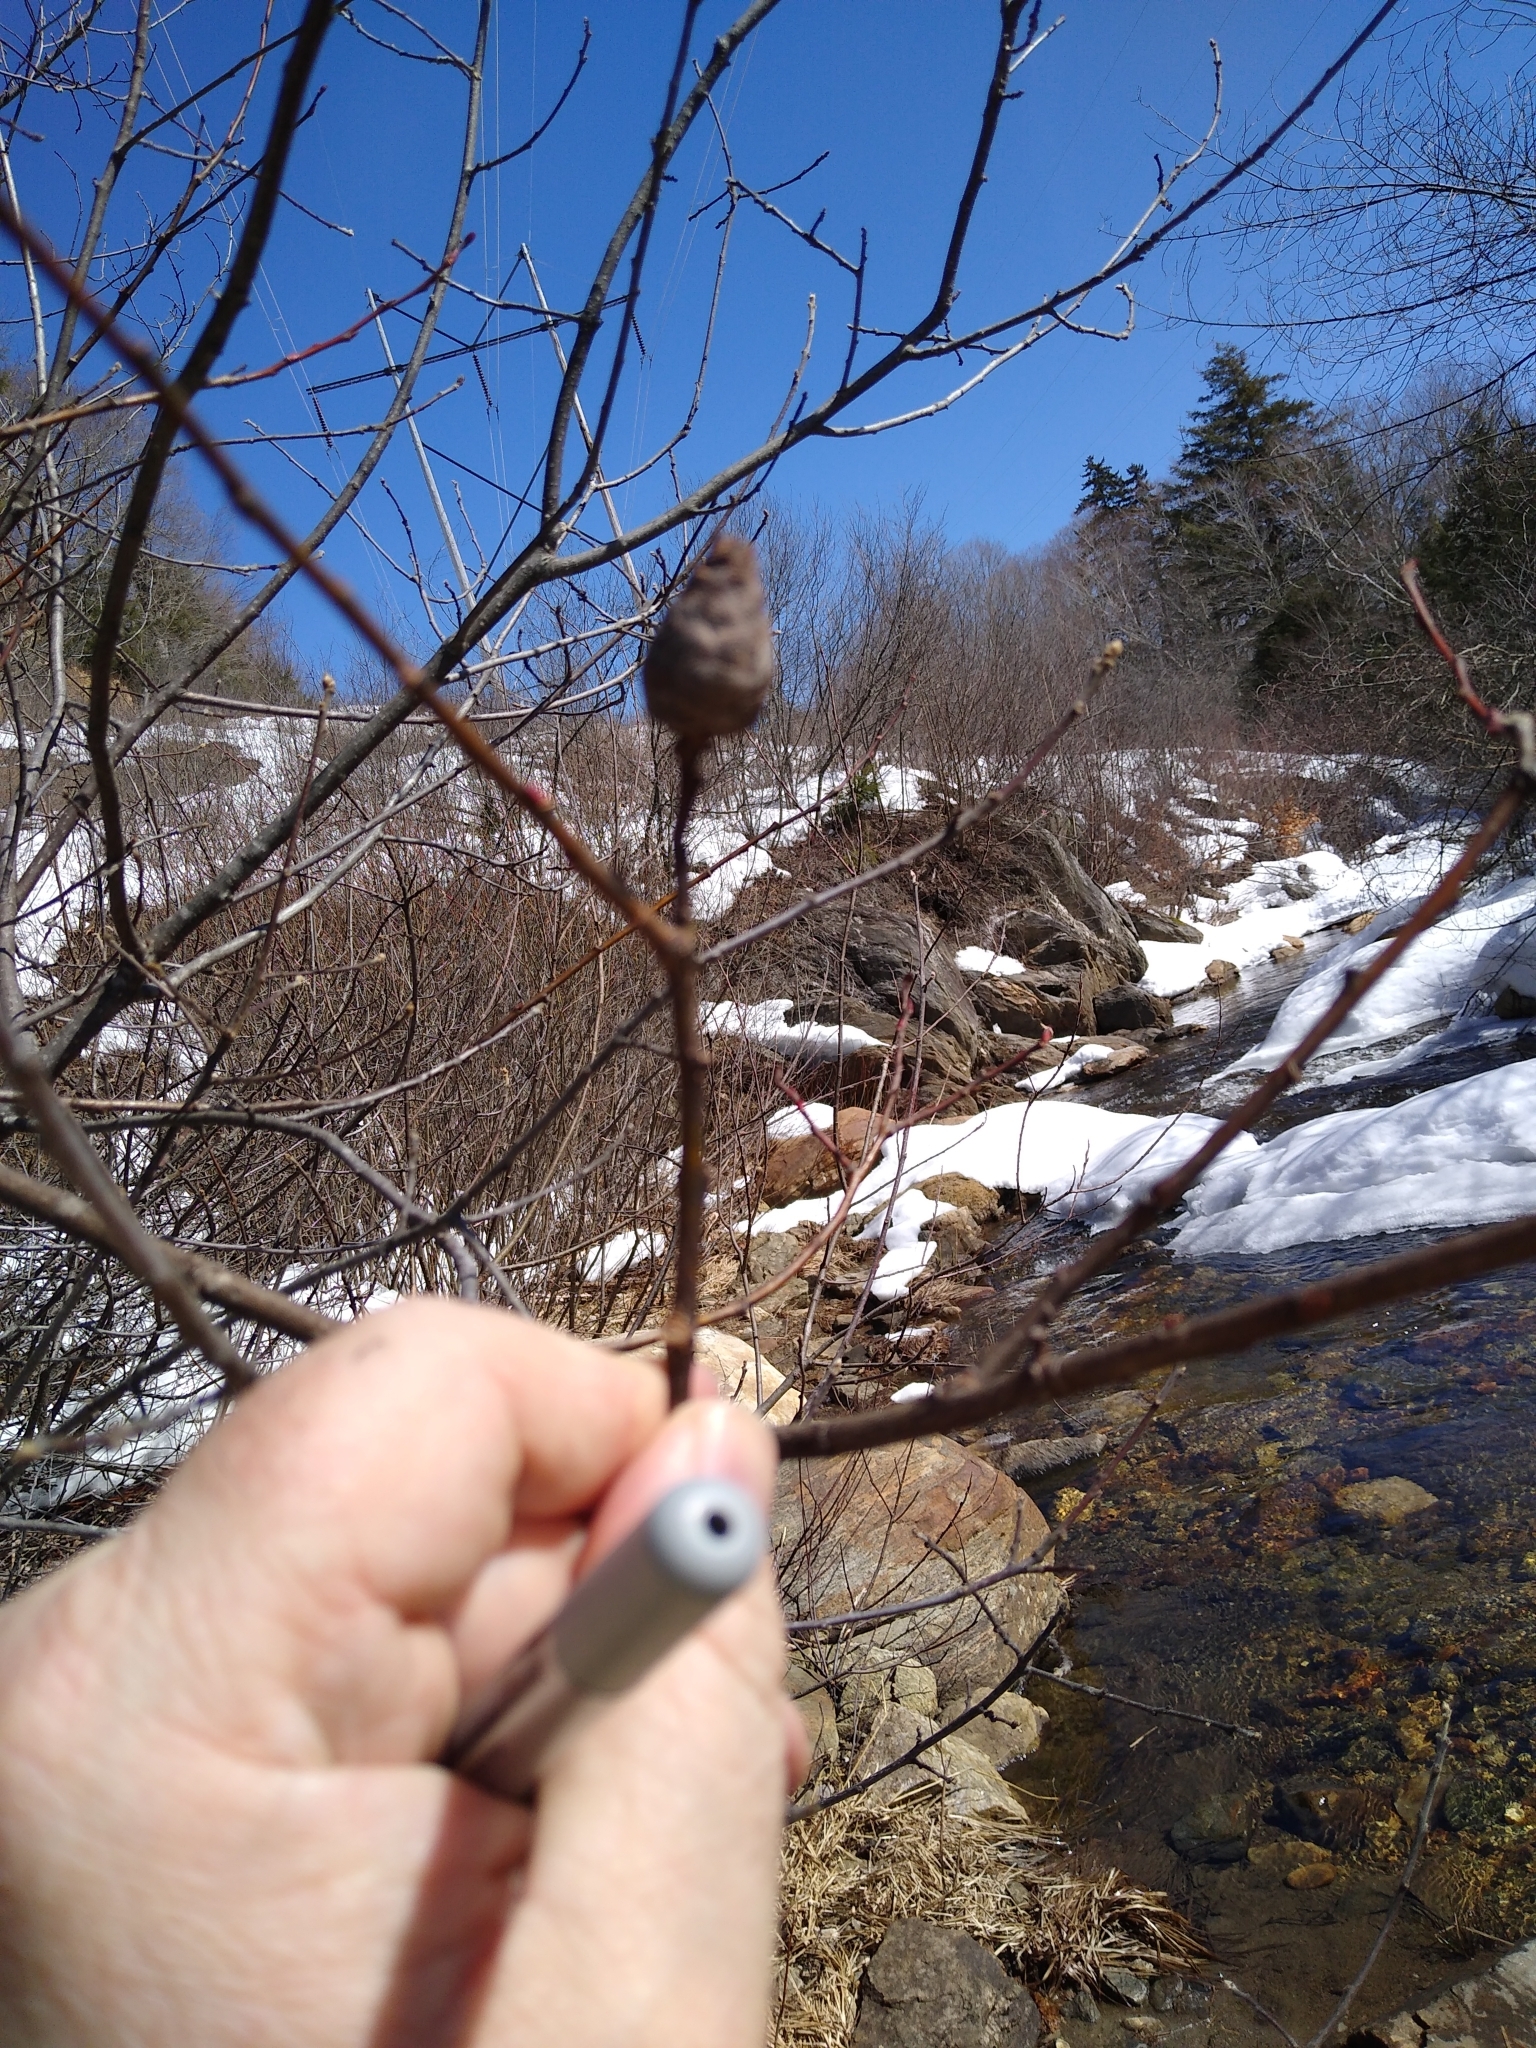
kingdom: Animalia
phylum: Arthropoda
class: Insecta
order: Diptera
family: Cecidomyiidae
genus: Rabdophaga
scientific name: Rabdophaga strobiloides
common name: Willow pinecone gall midge
